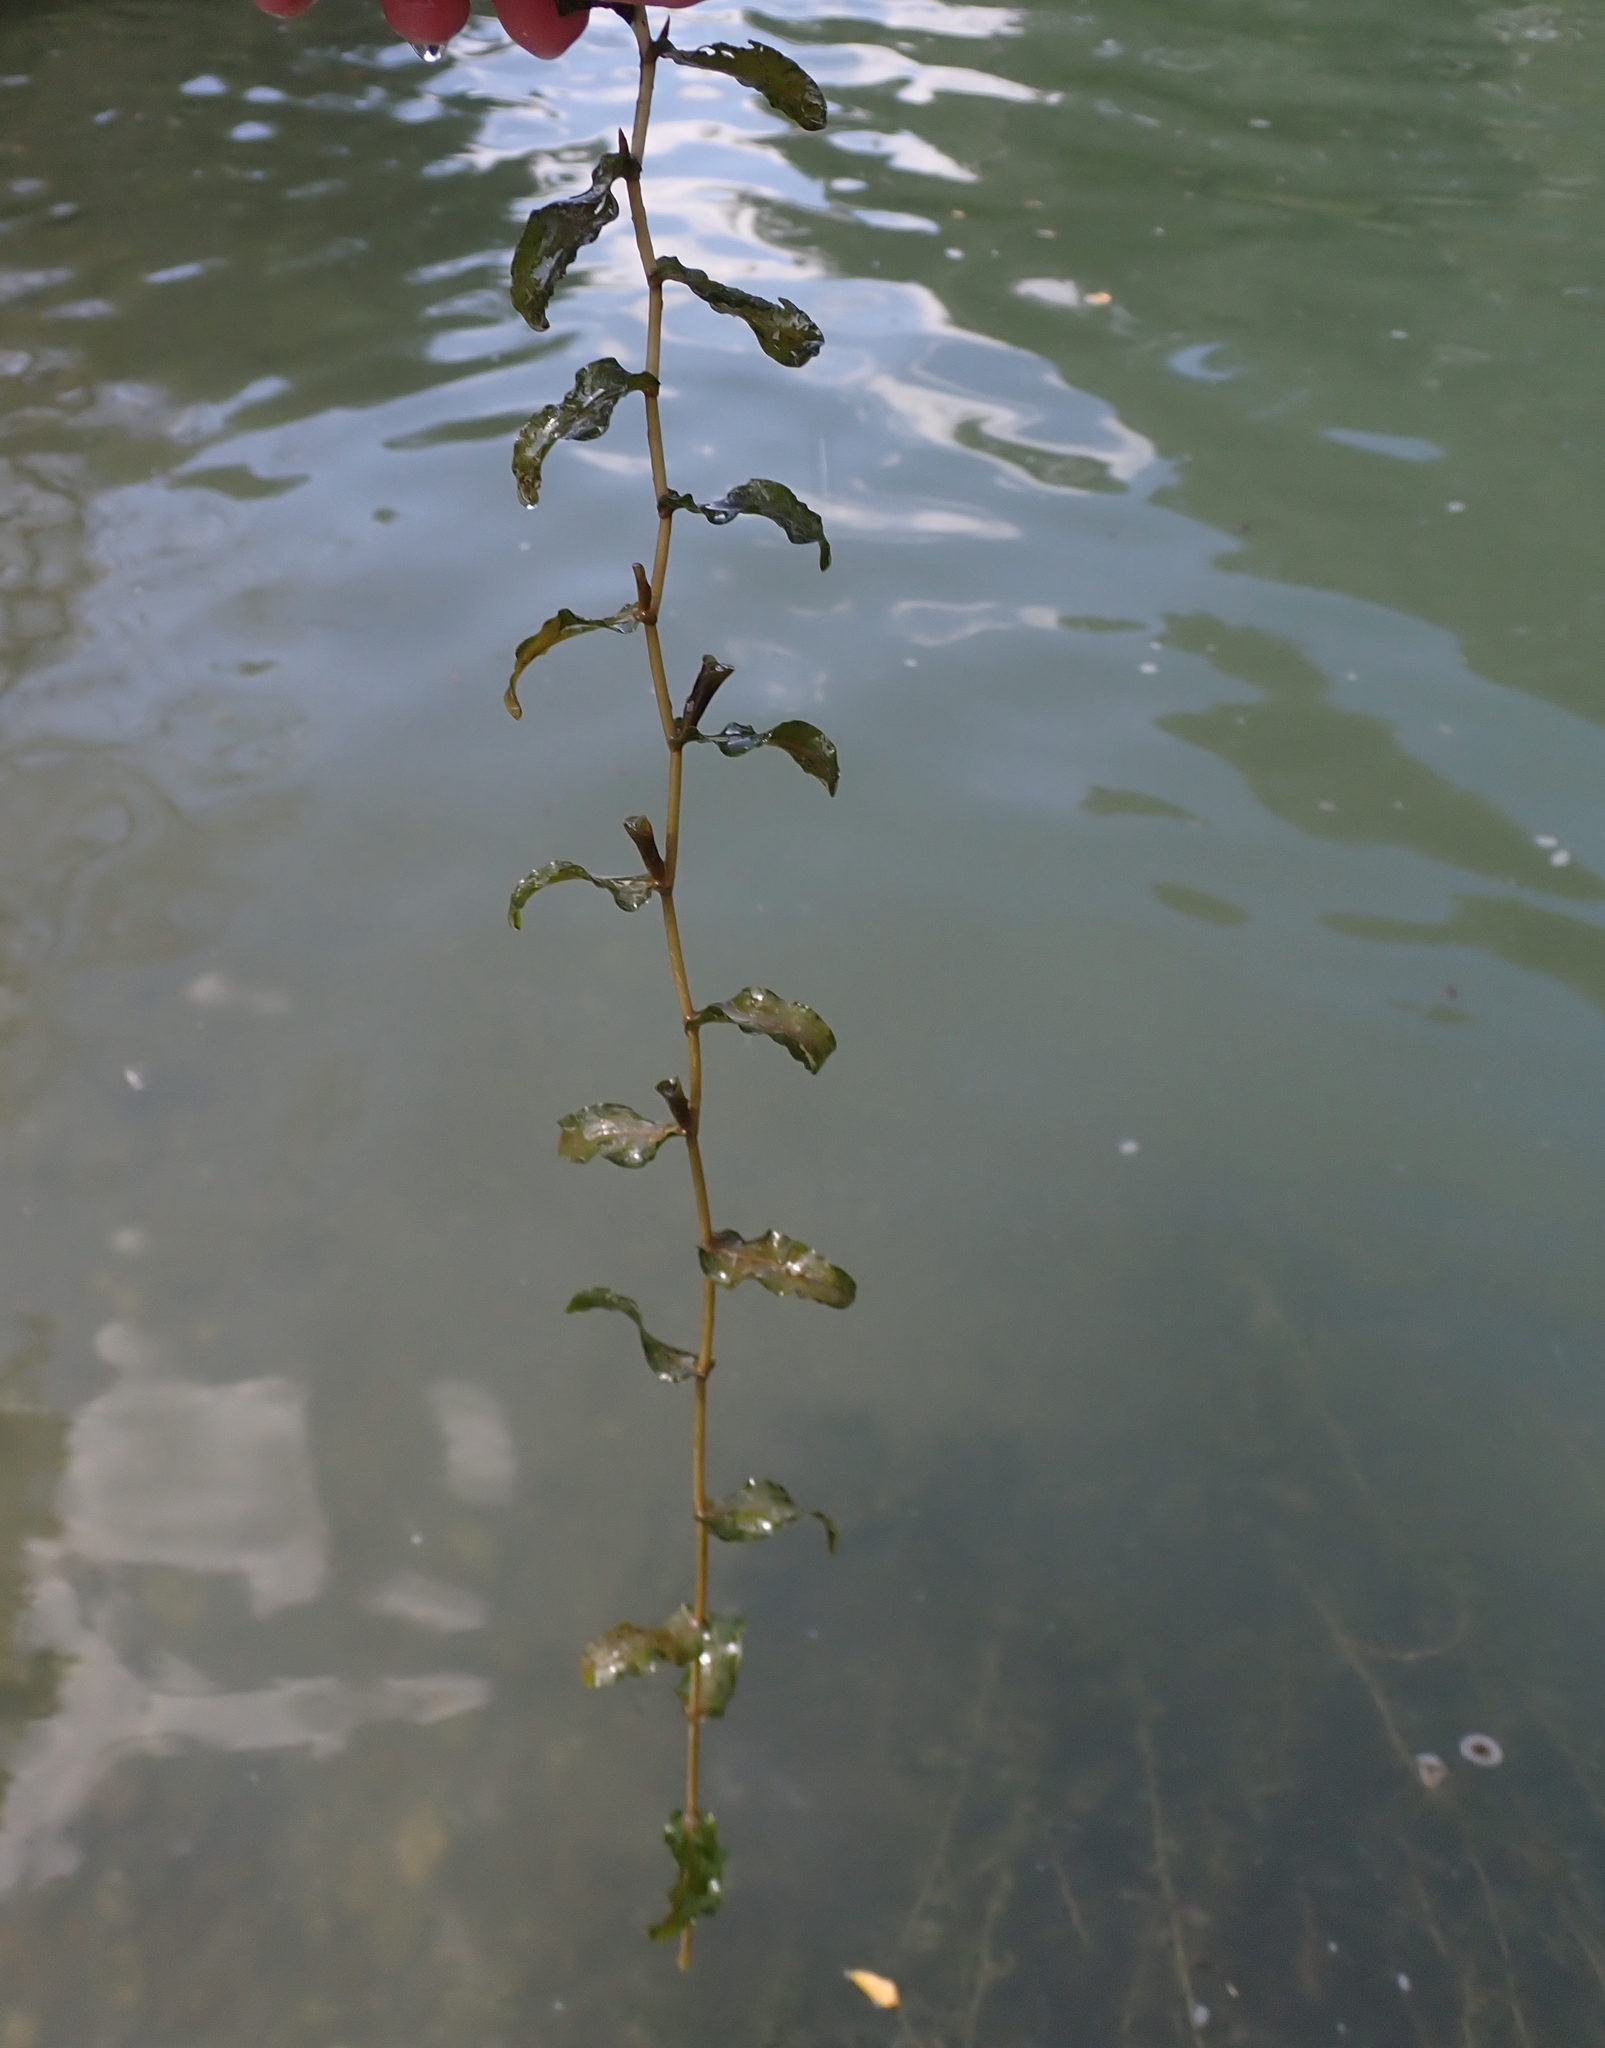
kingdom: Plantae
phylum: Tracheophyta
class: Liliopsida
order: Alismatales
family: Potamogetonaceae
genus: Potamogeton
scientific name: Potamogeton crispus
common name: Curled pondweed
